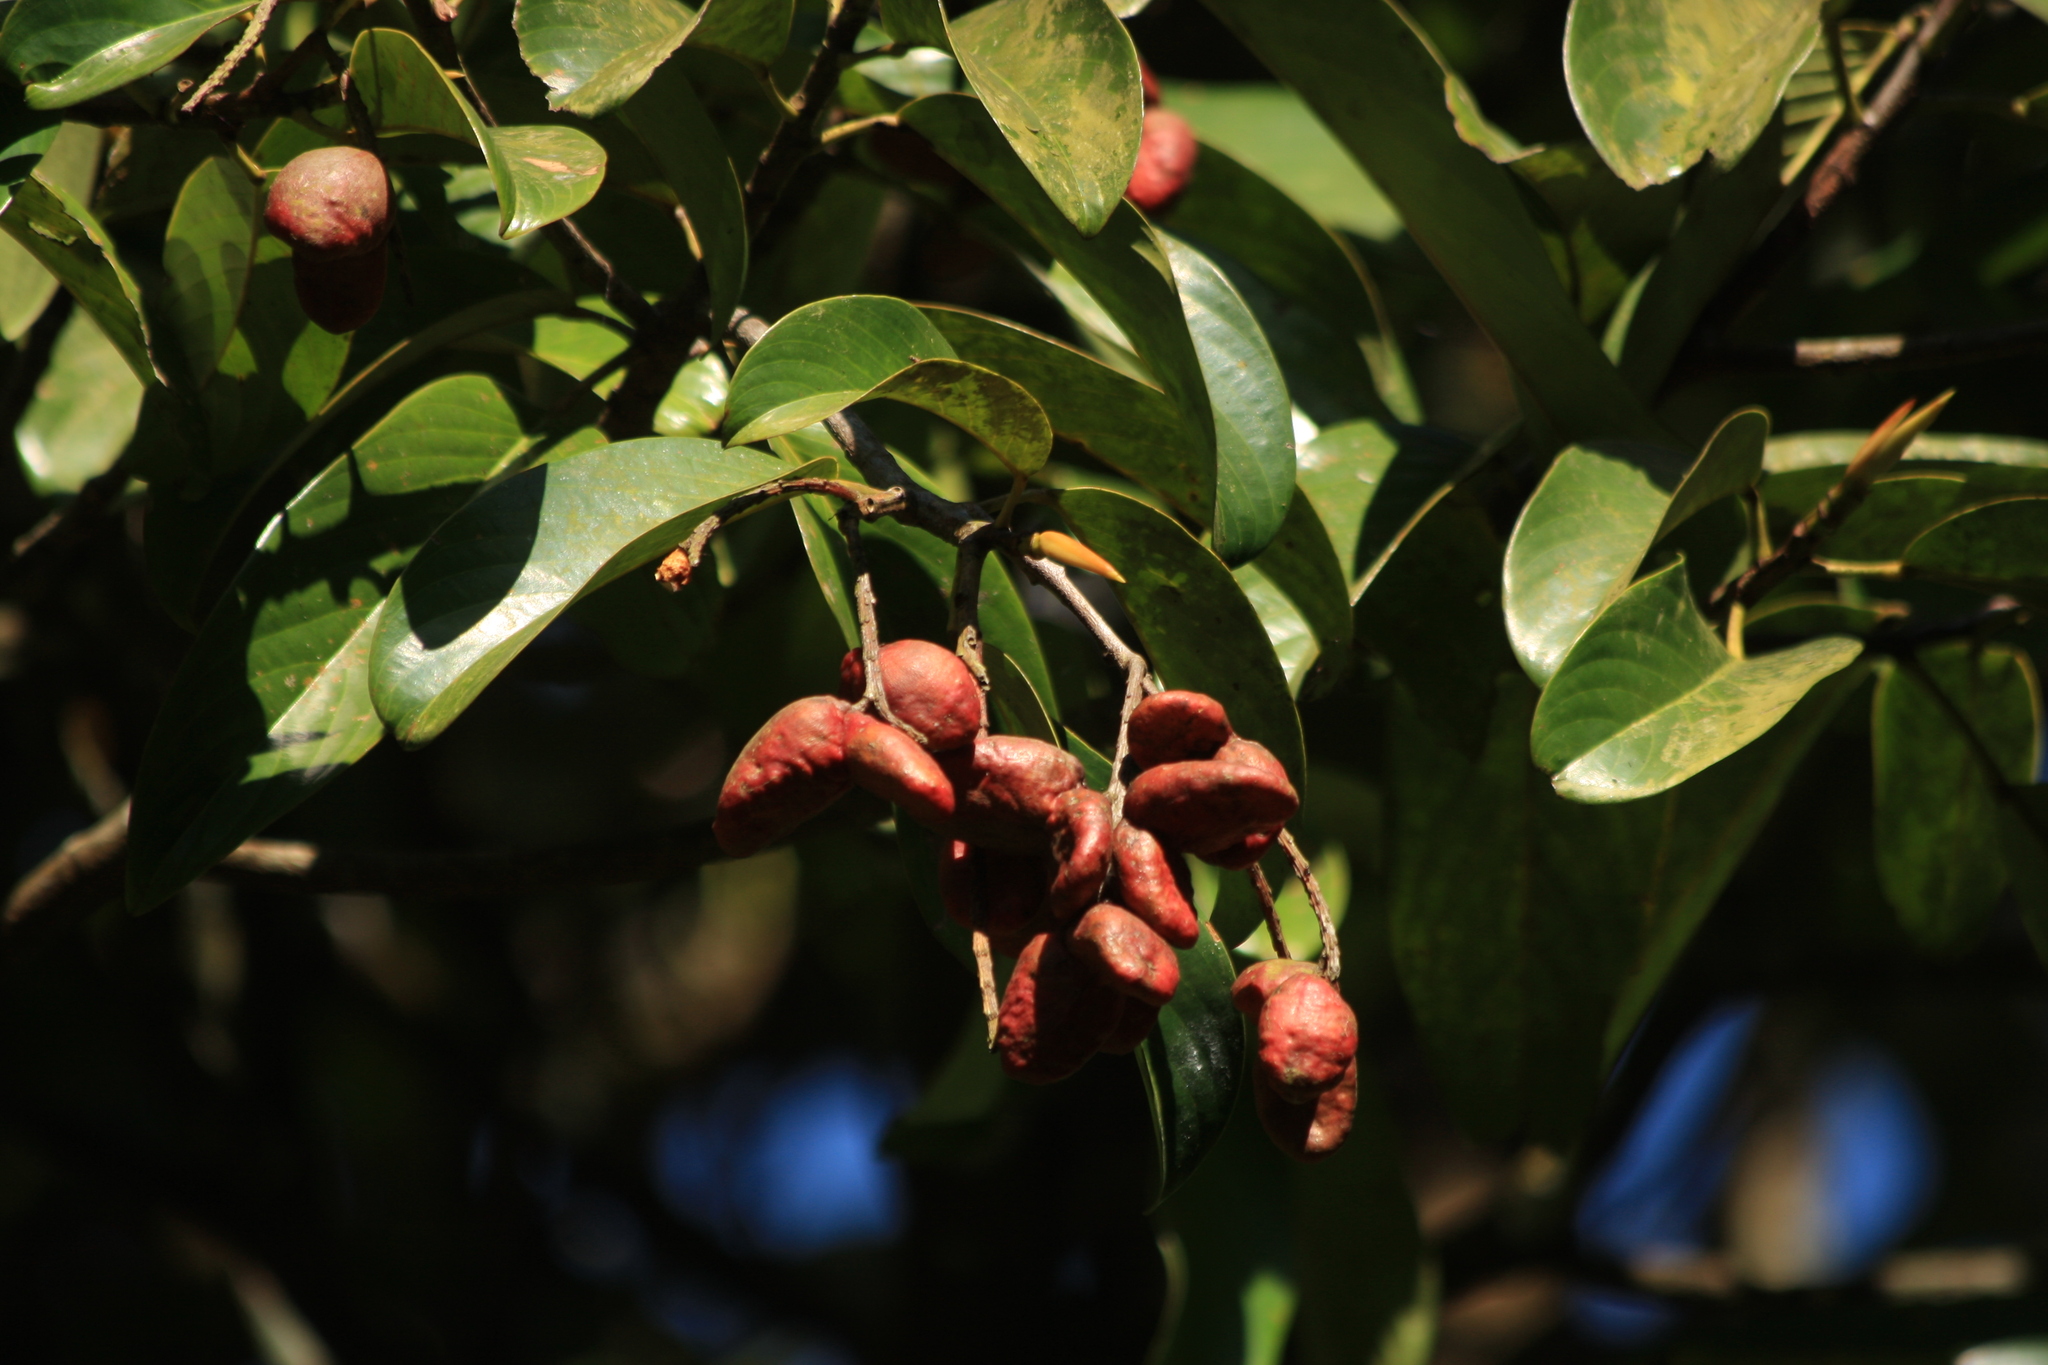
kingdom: Plantae
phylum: Tracheophyta
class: Magnoliopsida
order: Malpighiales
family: Centroplacaceae
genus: Bhesa
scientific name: Bhesa indica
